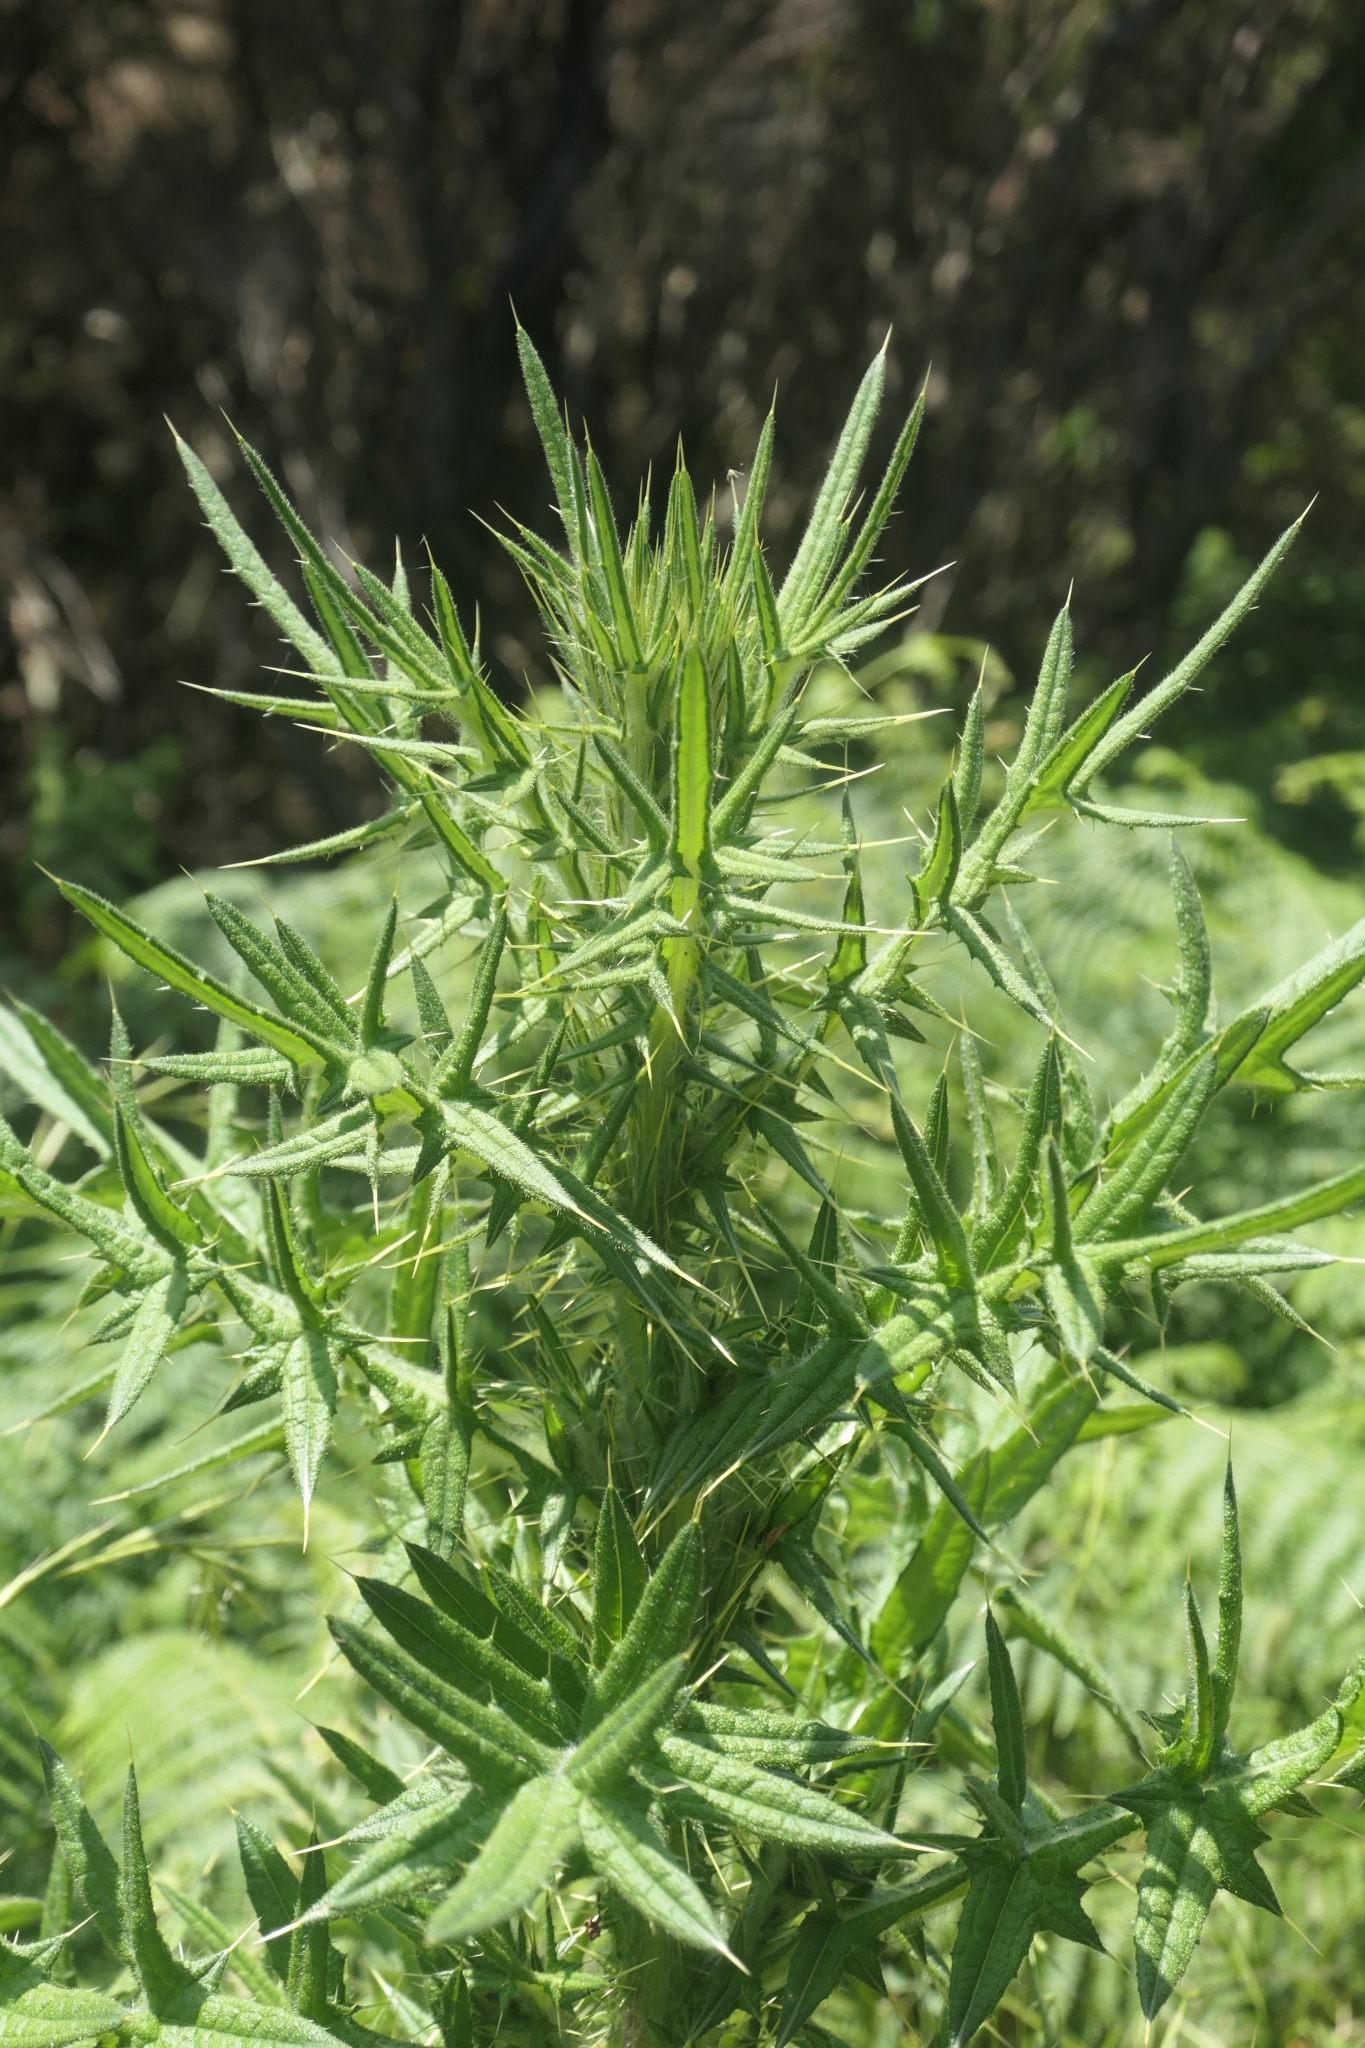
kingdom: Plantae
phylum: Tracheophyta
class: Magnoliopsida
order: Asterales
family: Asteraceae
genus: Cirsium
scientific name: Cirsium vulgare
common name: Bull thistle
